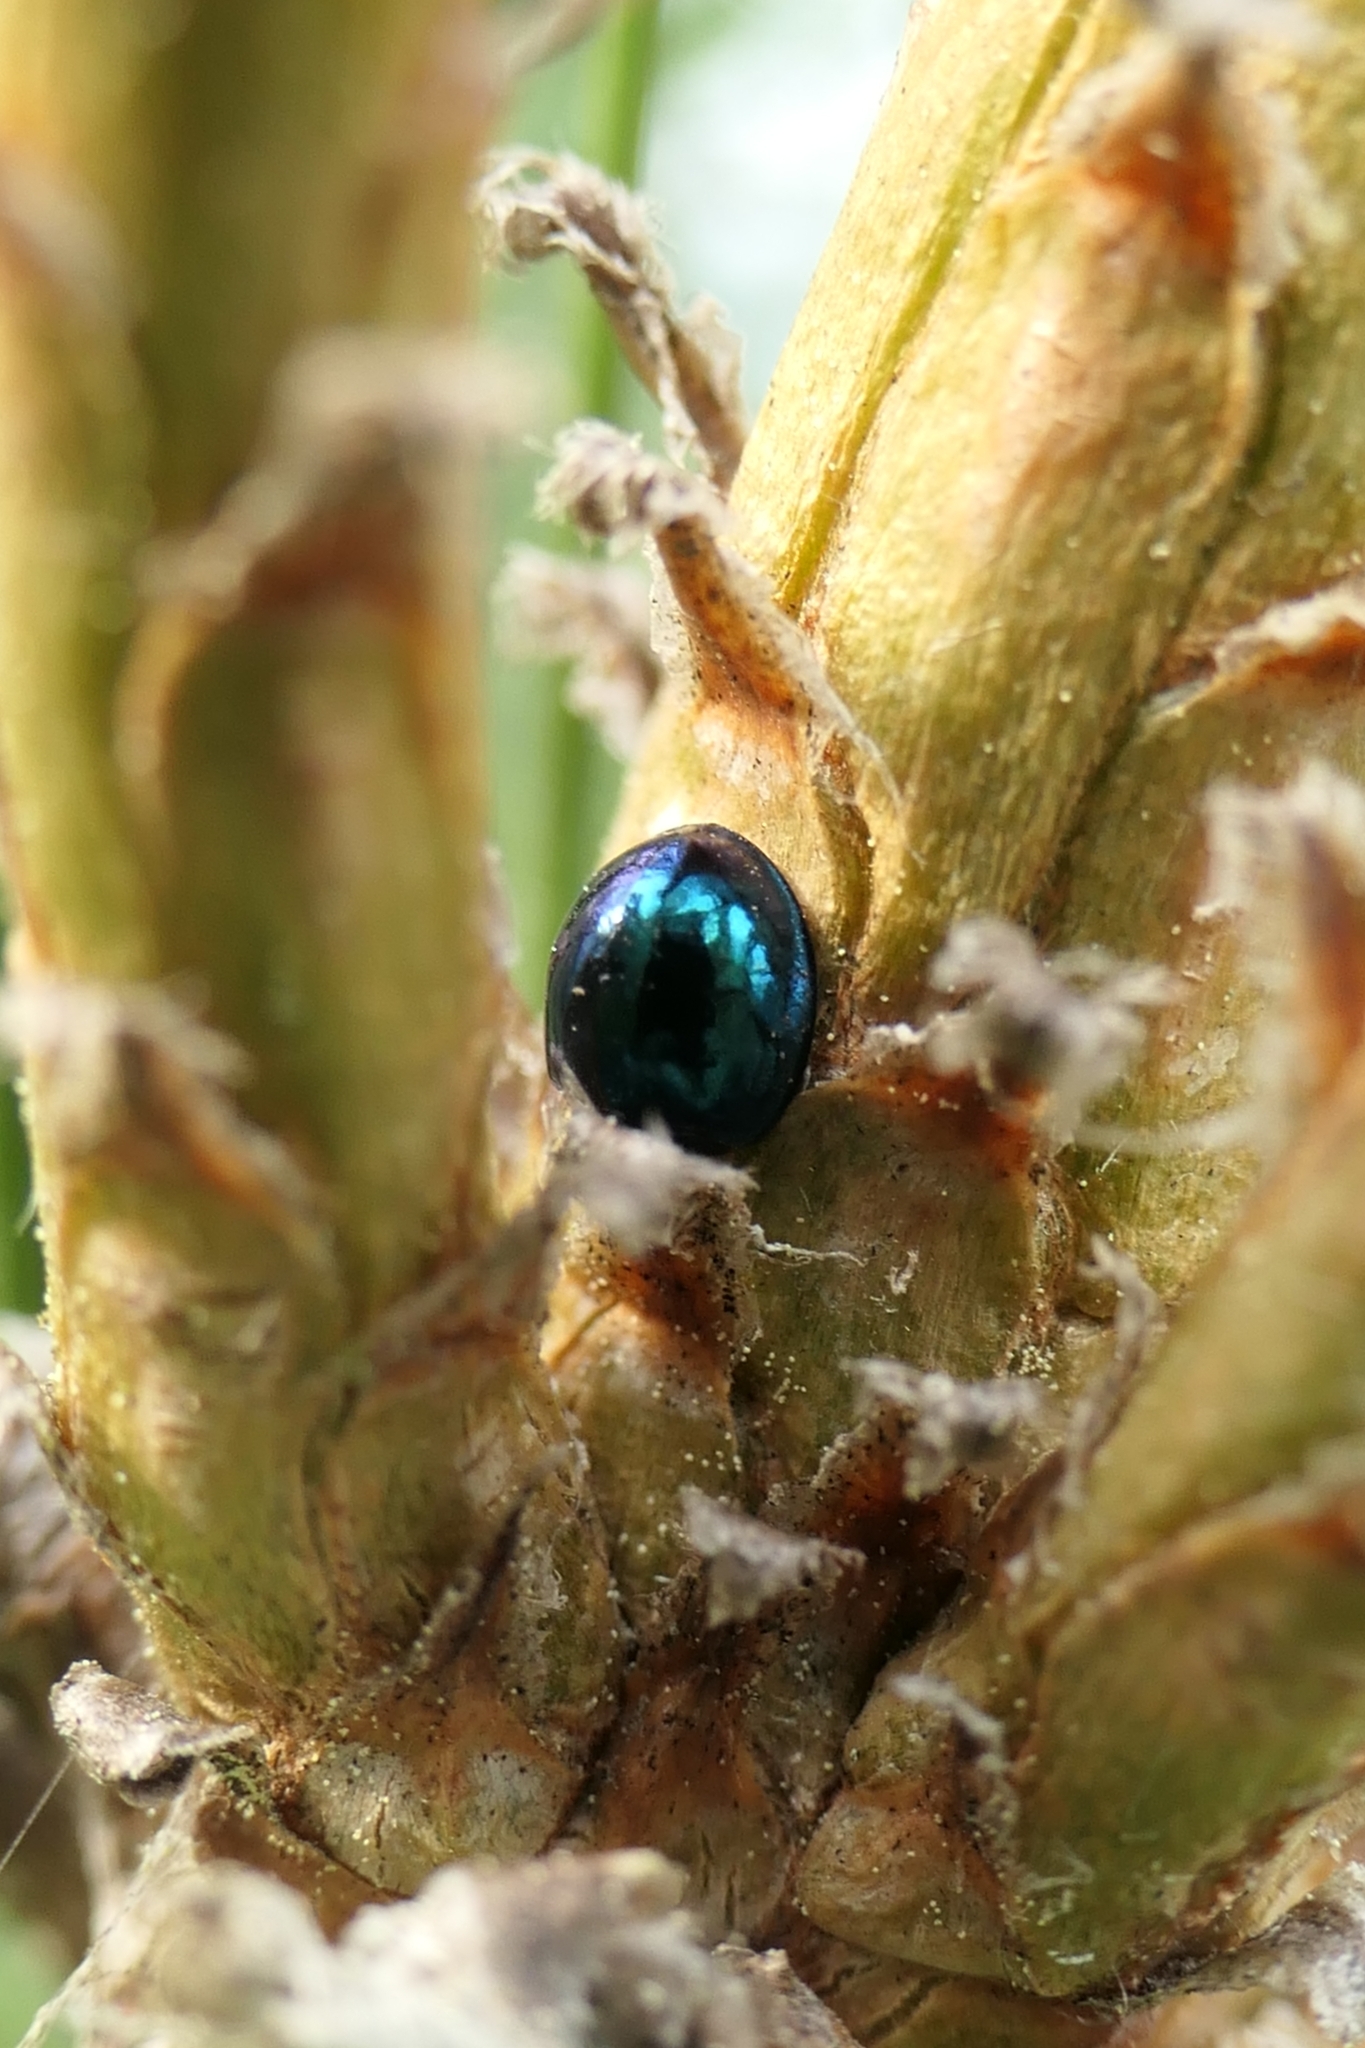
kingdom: Animalia
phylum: Arthropoda
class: Insecta
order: Coleoptera
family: Coccinellidae
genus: Halmus
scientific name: Halmus chalybeus
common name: Steel blue ladybird beetle
